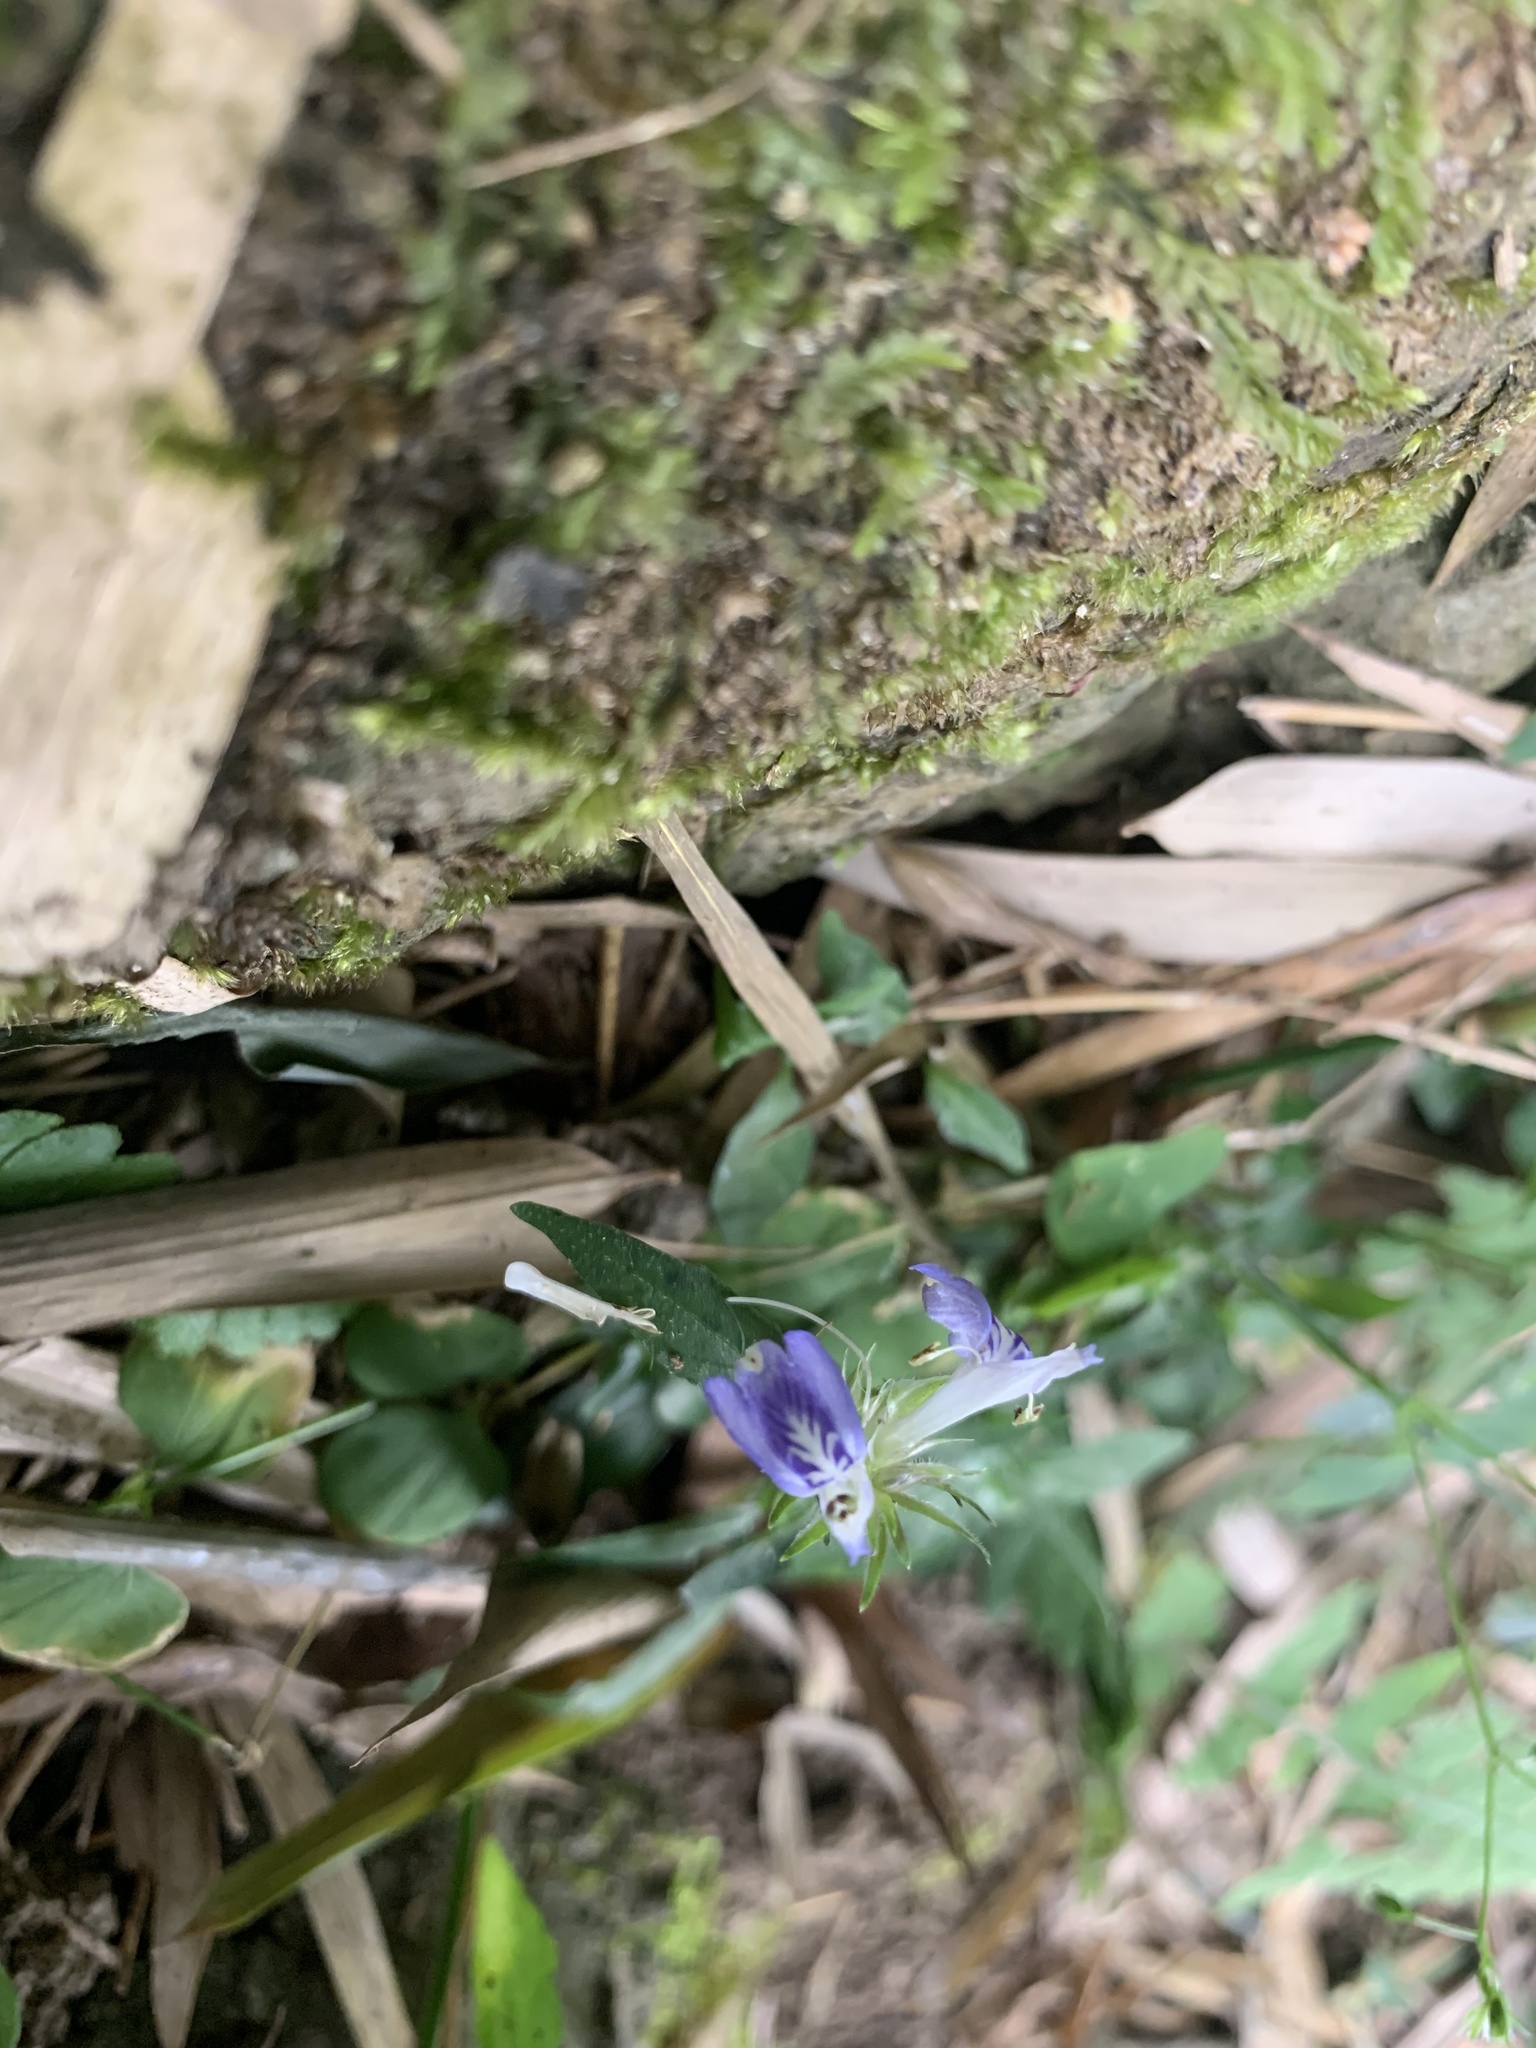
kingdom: Plantae
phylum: Tracheophyta
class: Magnoliopsida
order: Lamiales
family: Acanthaceae
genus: Rungia
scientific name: Rungia taiwanensis
